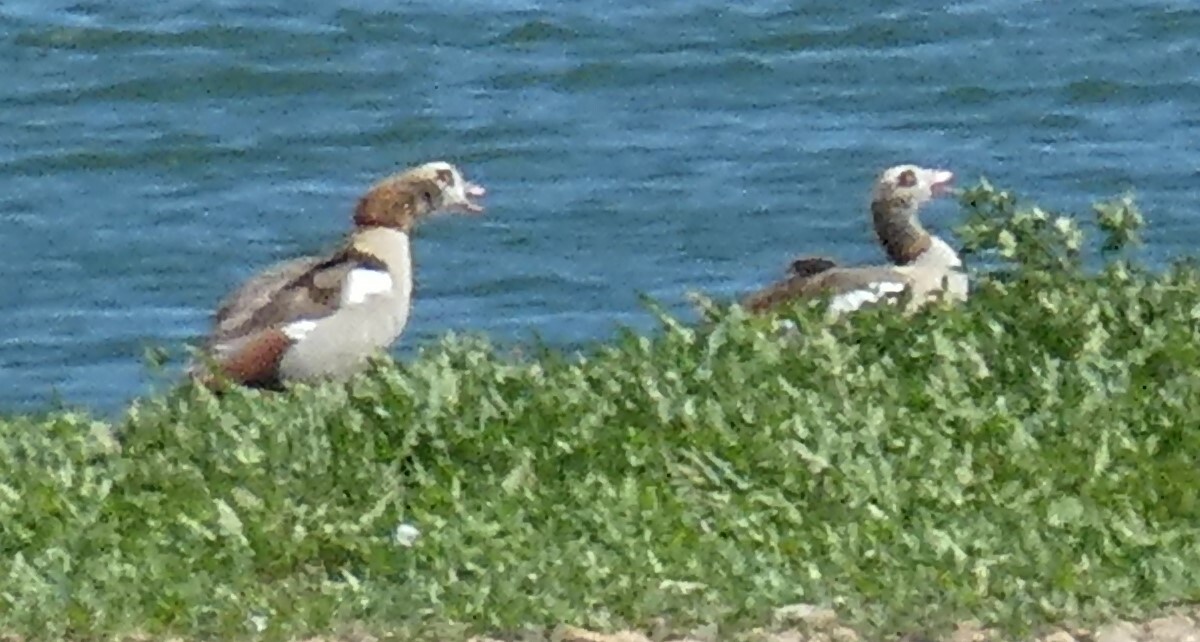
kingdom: Animalia
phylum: Chordata
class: Aves
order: Anseriformes
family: Anatidae
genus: Alopochen
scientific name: Alopochen aegyptiaca
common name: Egyptian goose
